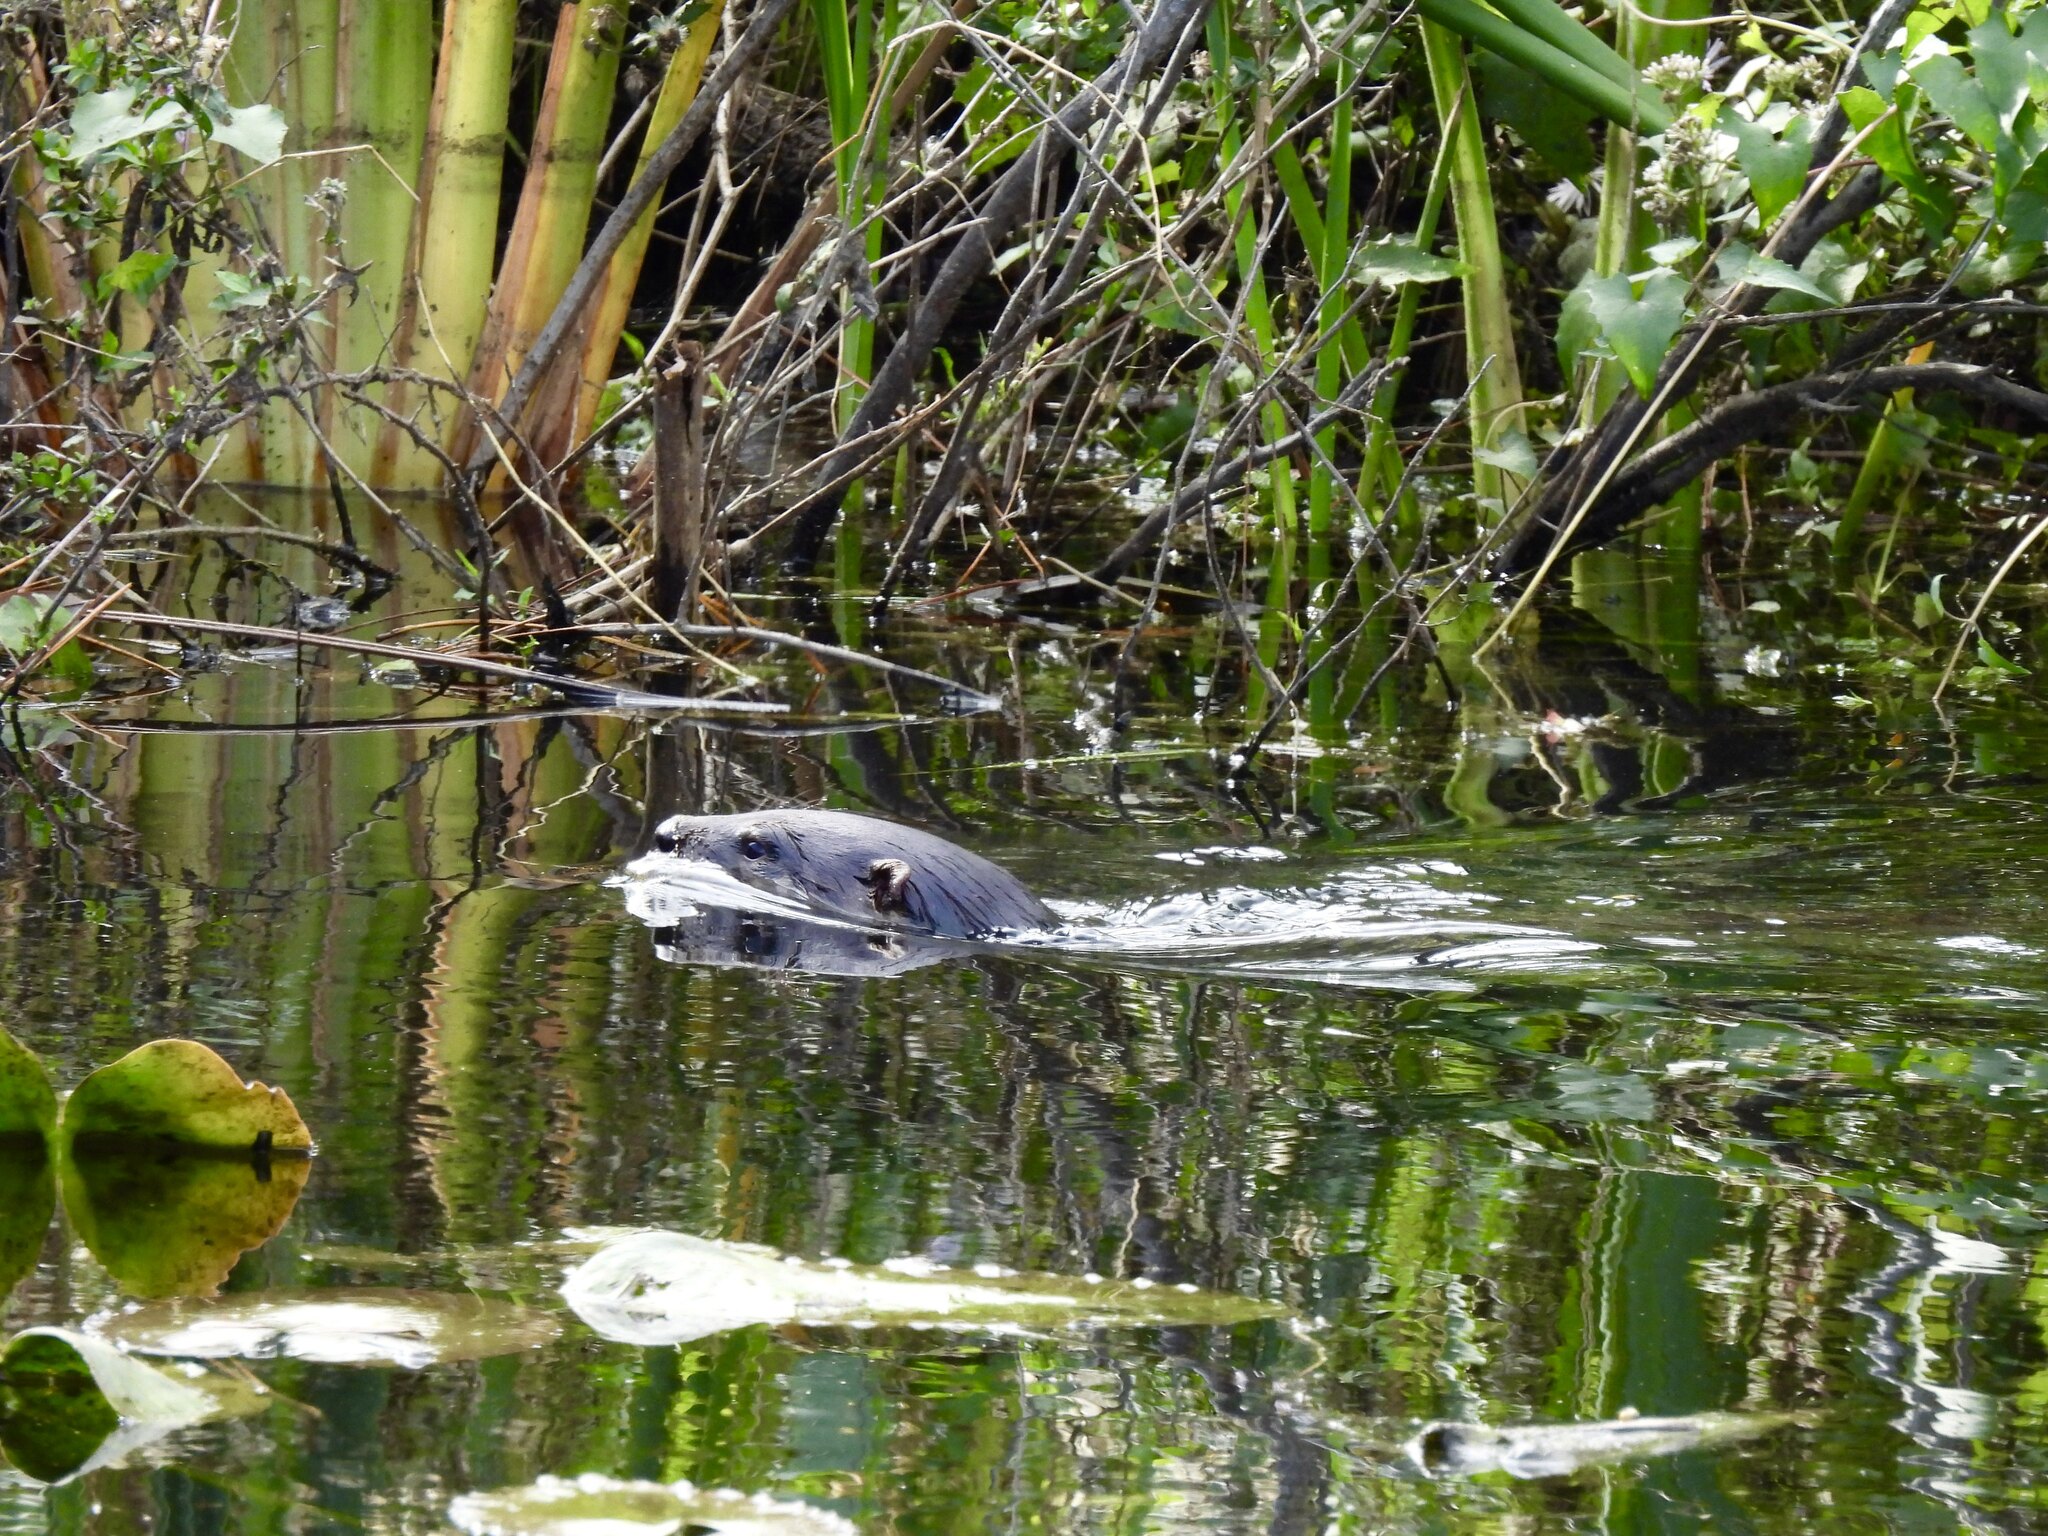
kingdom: Animalia
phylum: Chordata
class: Mammalia
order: Carnivora
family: Mustelidae
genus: Lontra
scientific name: Lontra canadensis
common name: North american river otter
